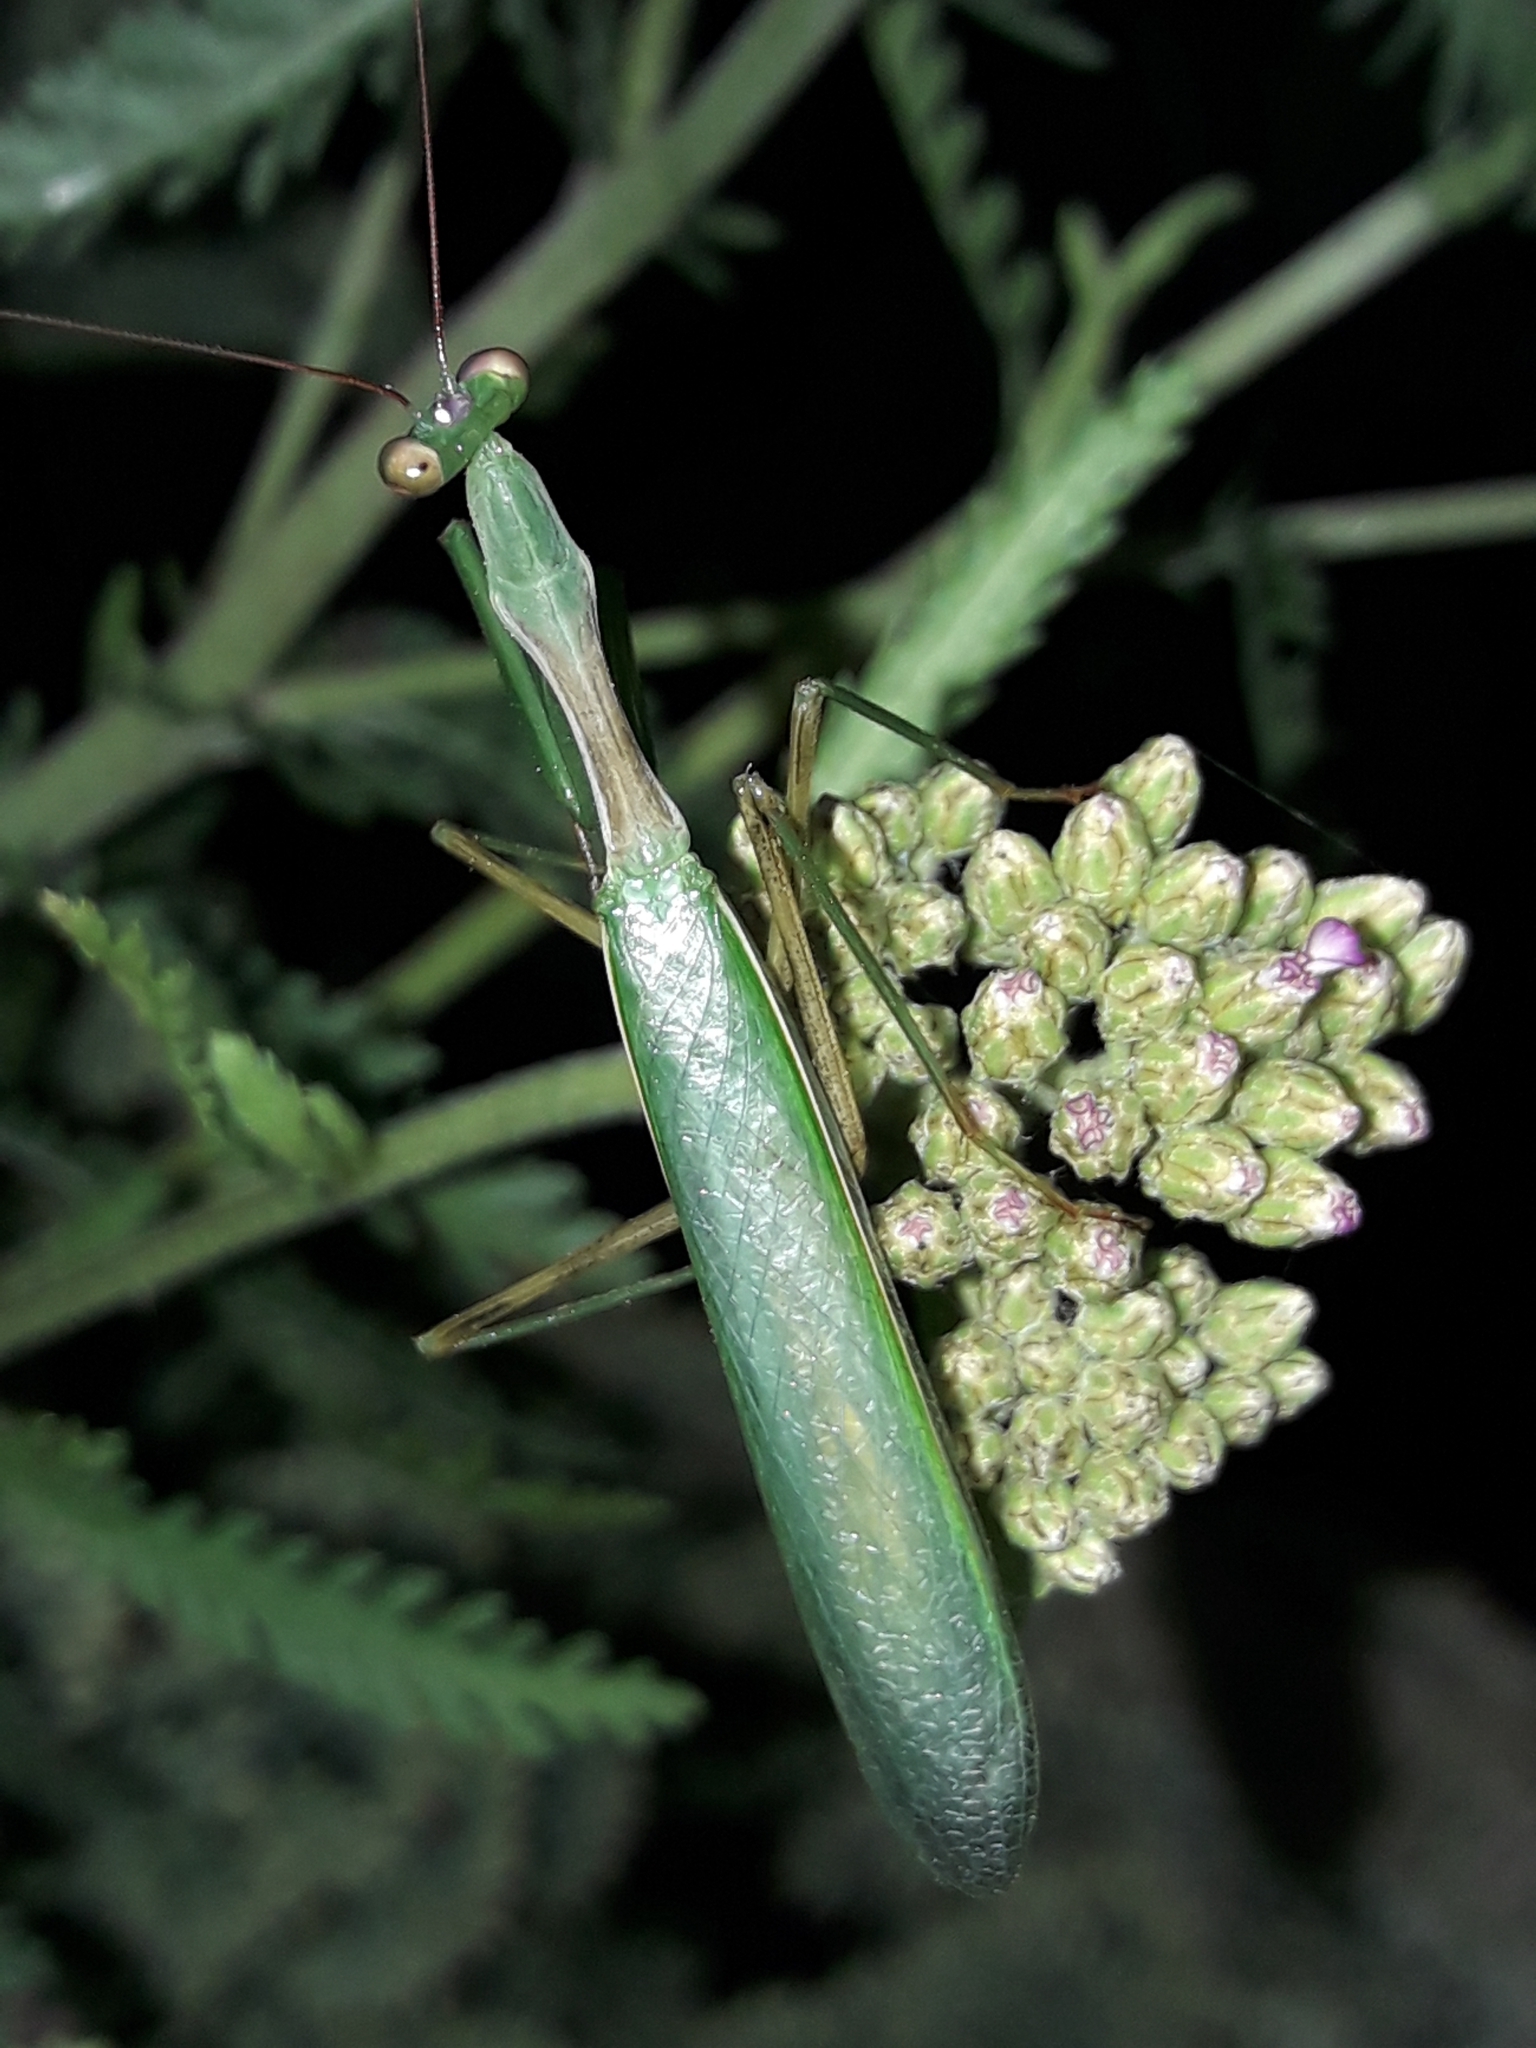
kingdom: Animalia
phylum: Arthropoda
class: Insecta
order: Mantodea
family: Miomantidae
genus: Miomantis
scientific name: Miomantis caffra
